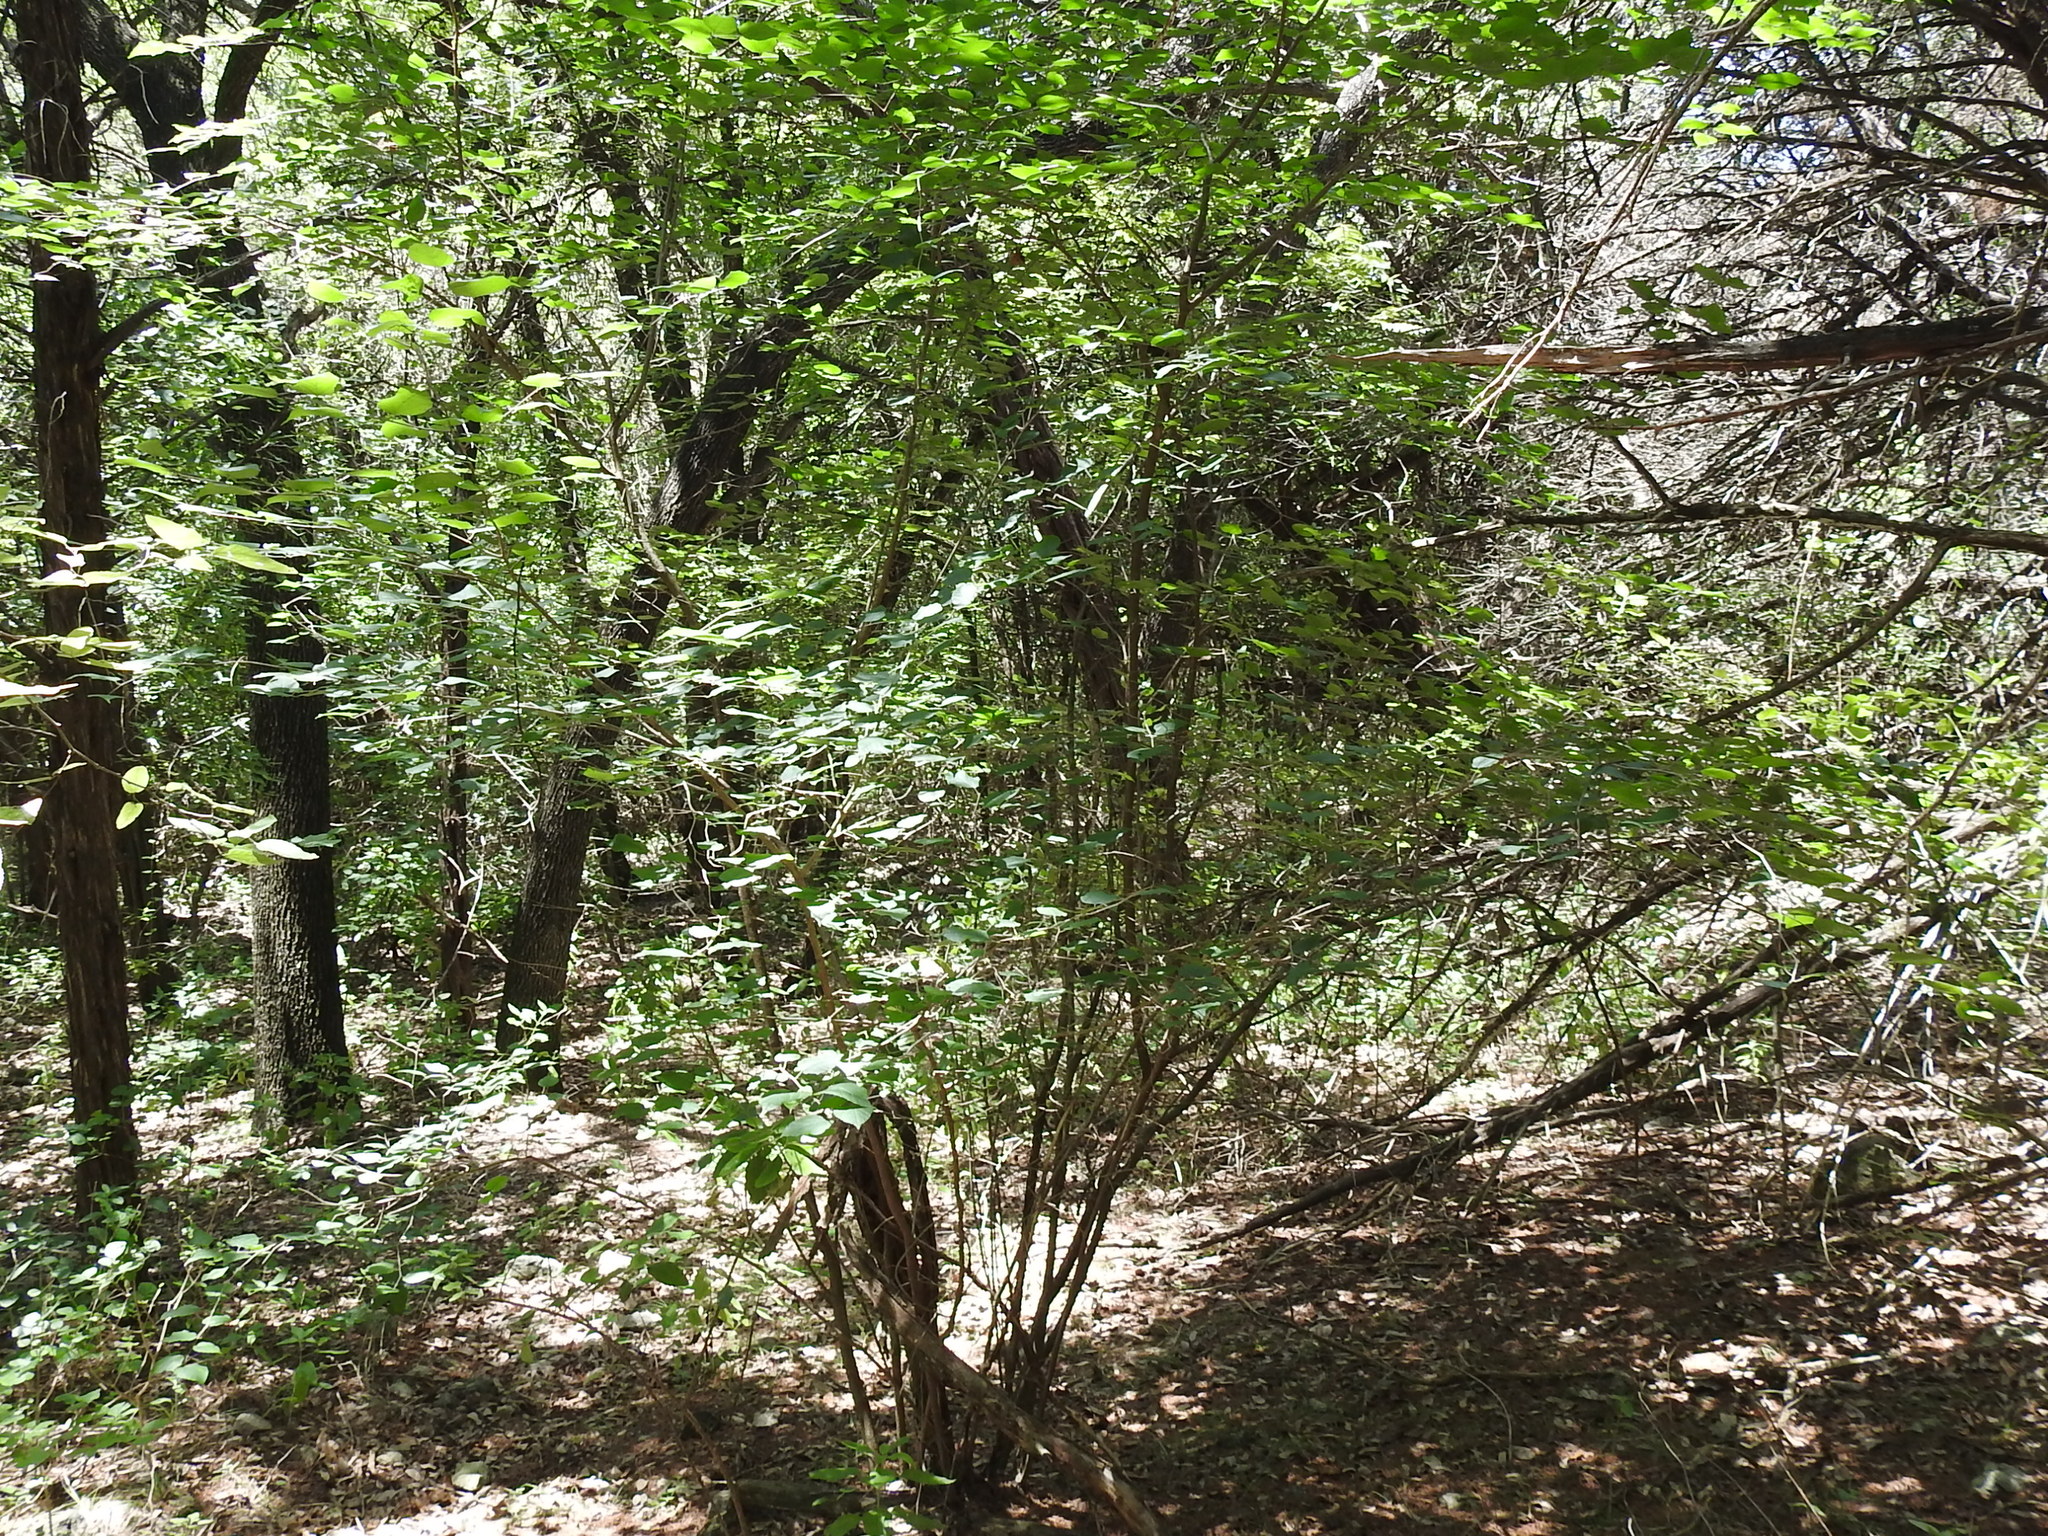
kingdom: Plantae
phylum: Tracheophyta
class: Magnoliopsida
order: Rosales
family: Moraceae
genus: Morus
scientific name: Morus microphylla
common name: Mexican mulberry
